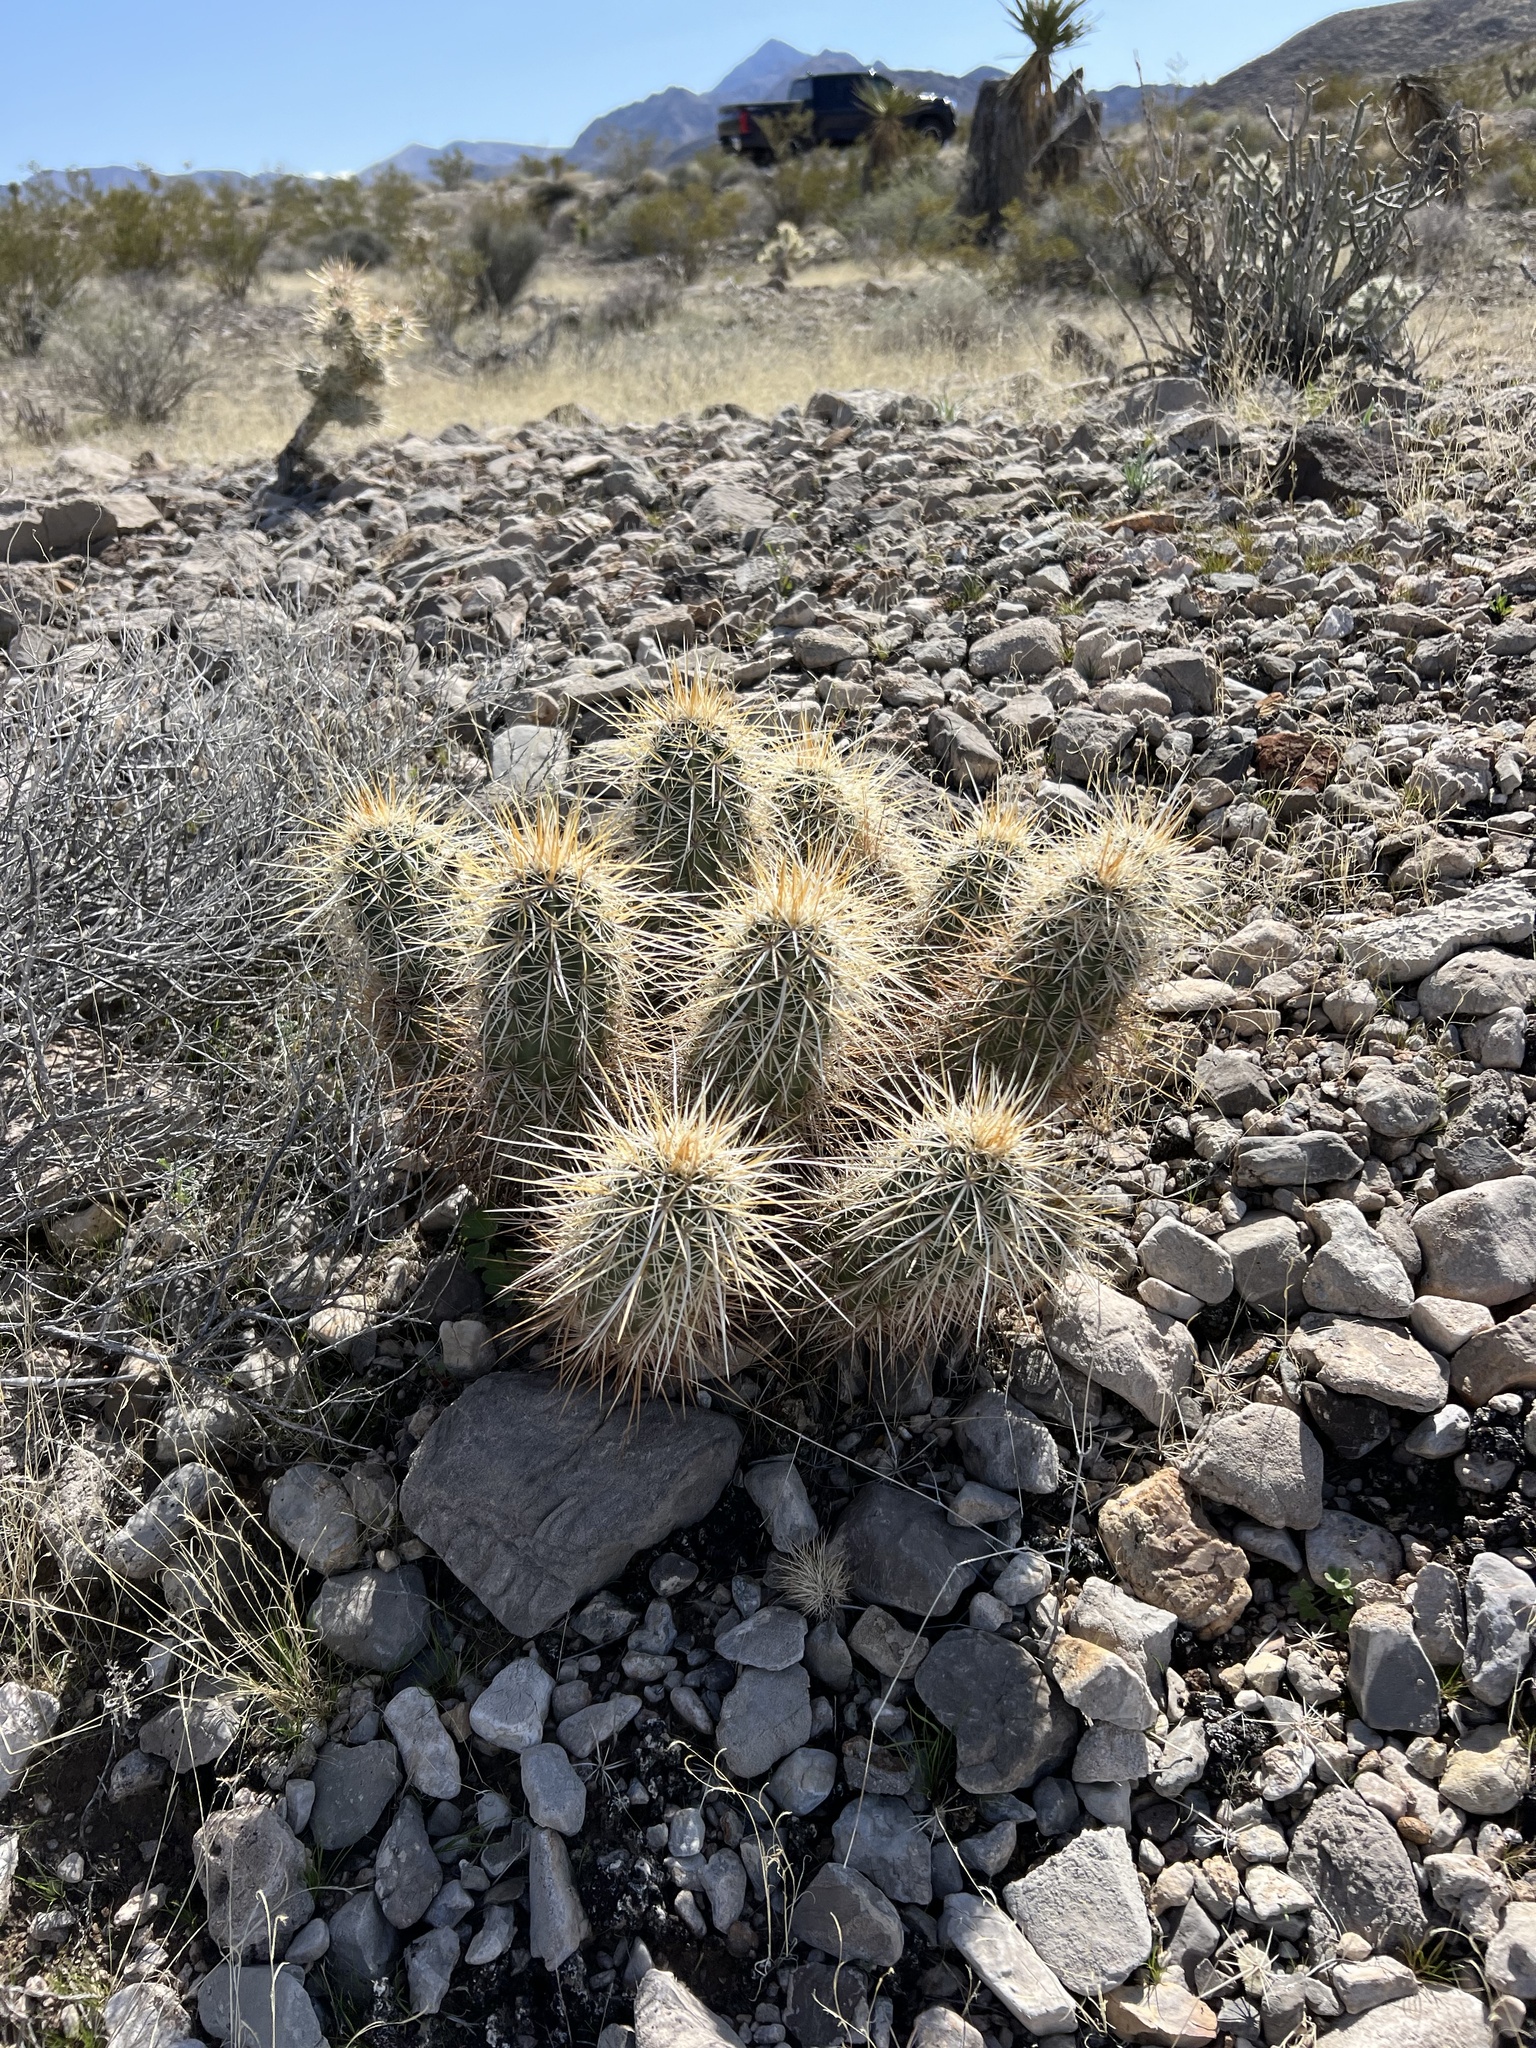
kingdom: Plantae
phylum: Tracheophyta
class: Magnoliopsida
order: Caryophyllales
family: Cactaceae
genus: Echinocereus
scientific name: Echinocereus engelmannii
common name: Engelmann's hedgehog cactus
